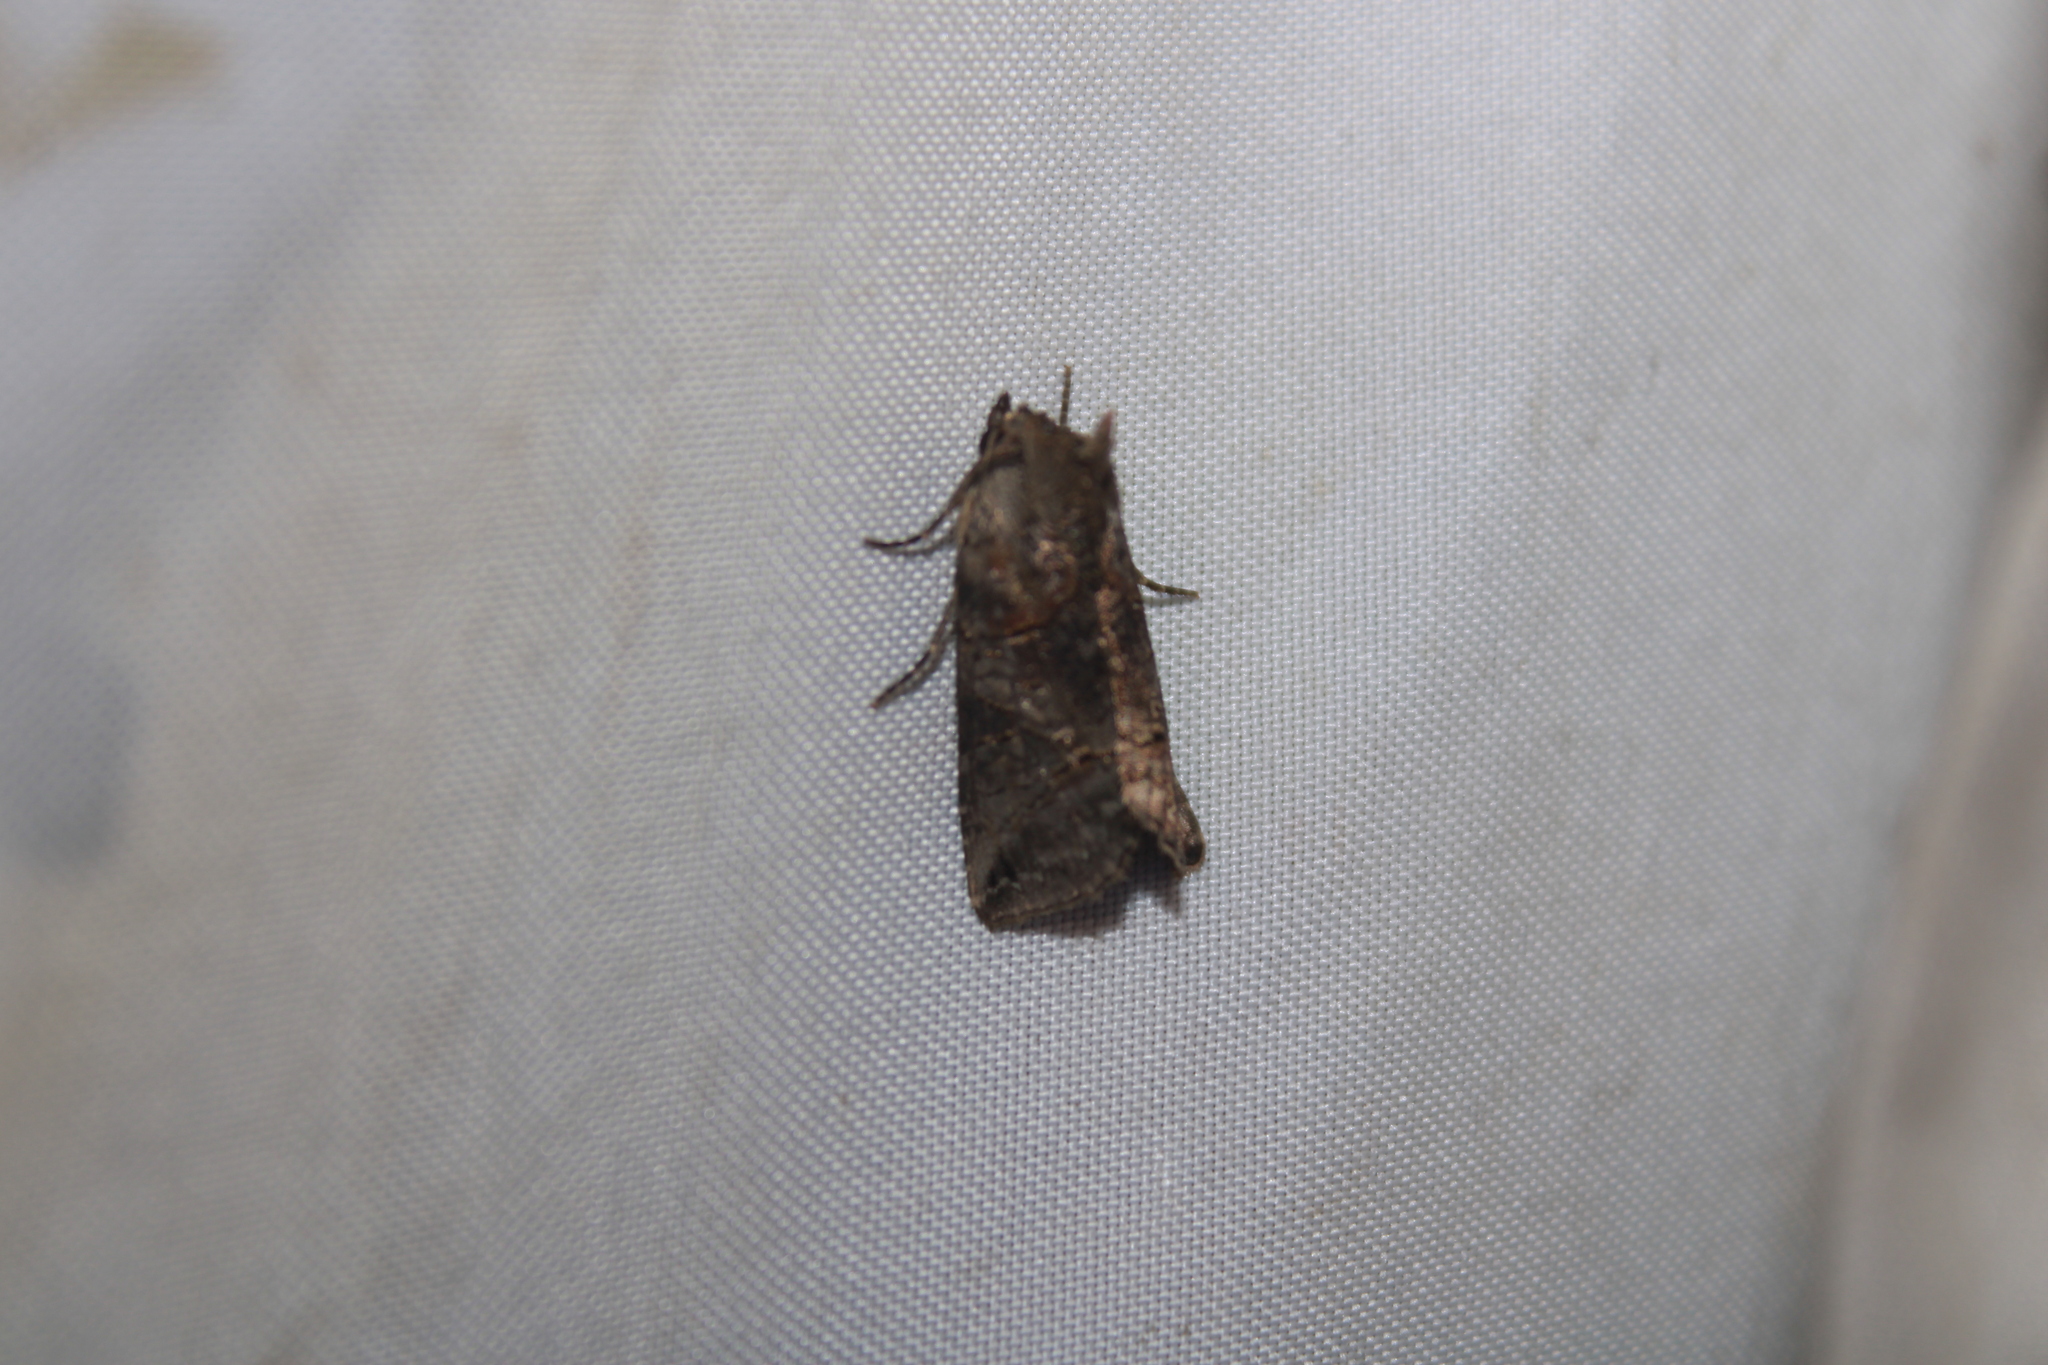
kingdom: Animalia
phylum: Arthropoda
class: Insecta
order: Lepidoptera
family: Noctuidae
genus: Abrostola
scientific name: Abrostola urentis
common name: Spectacled nettle moth
